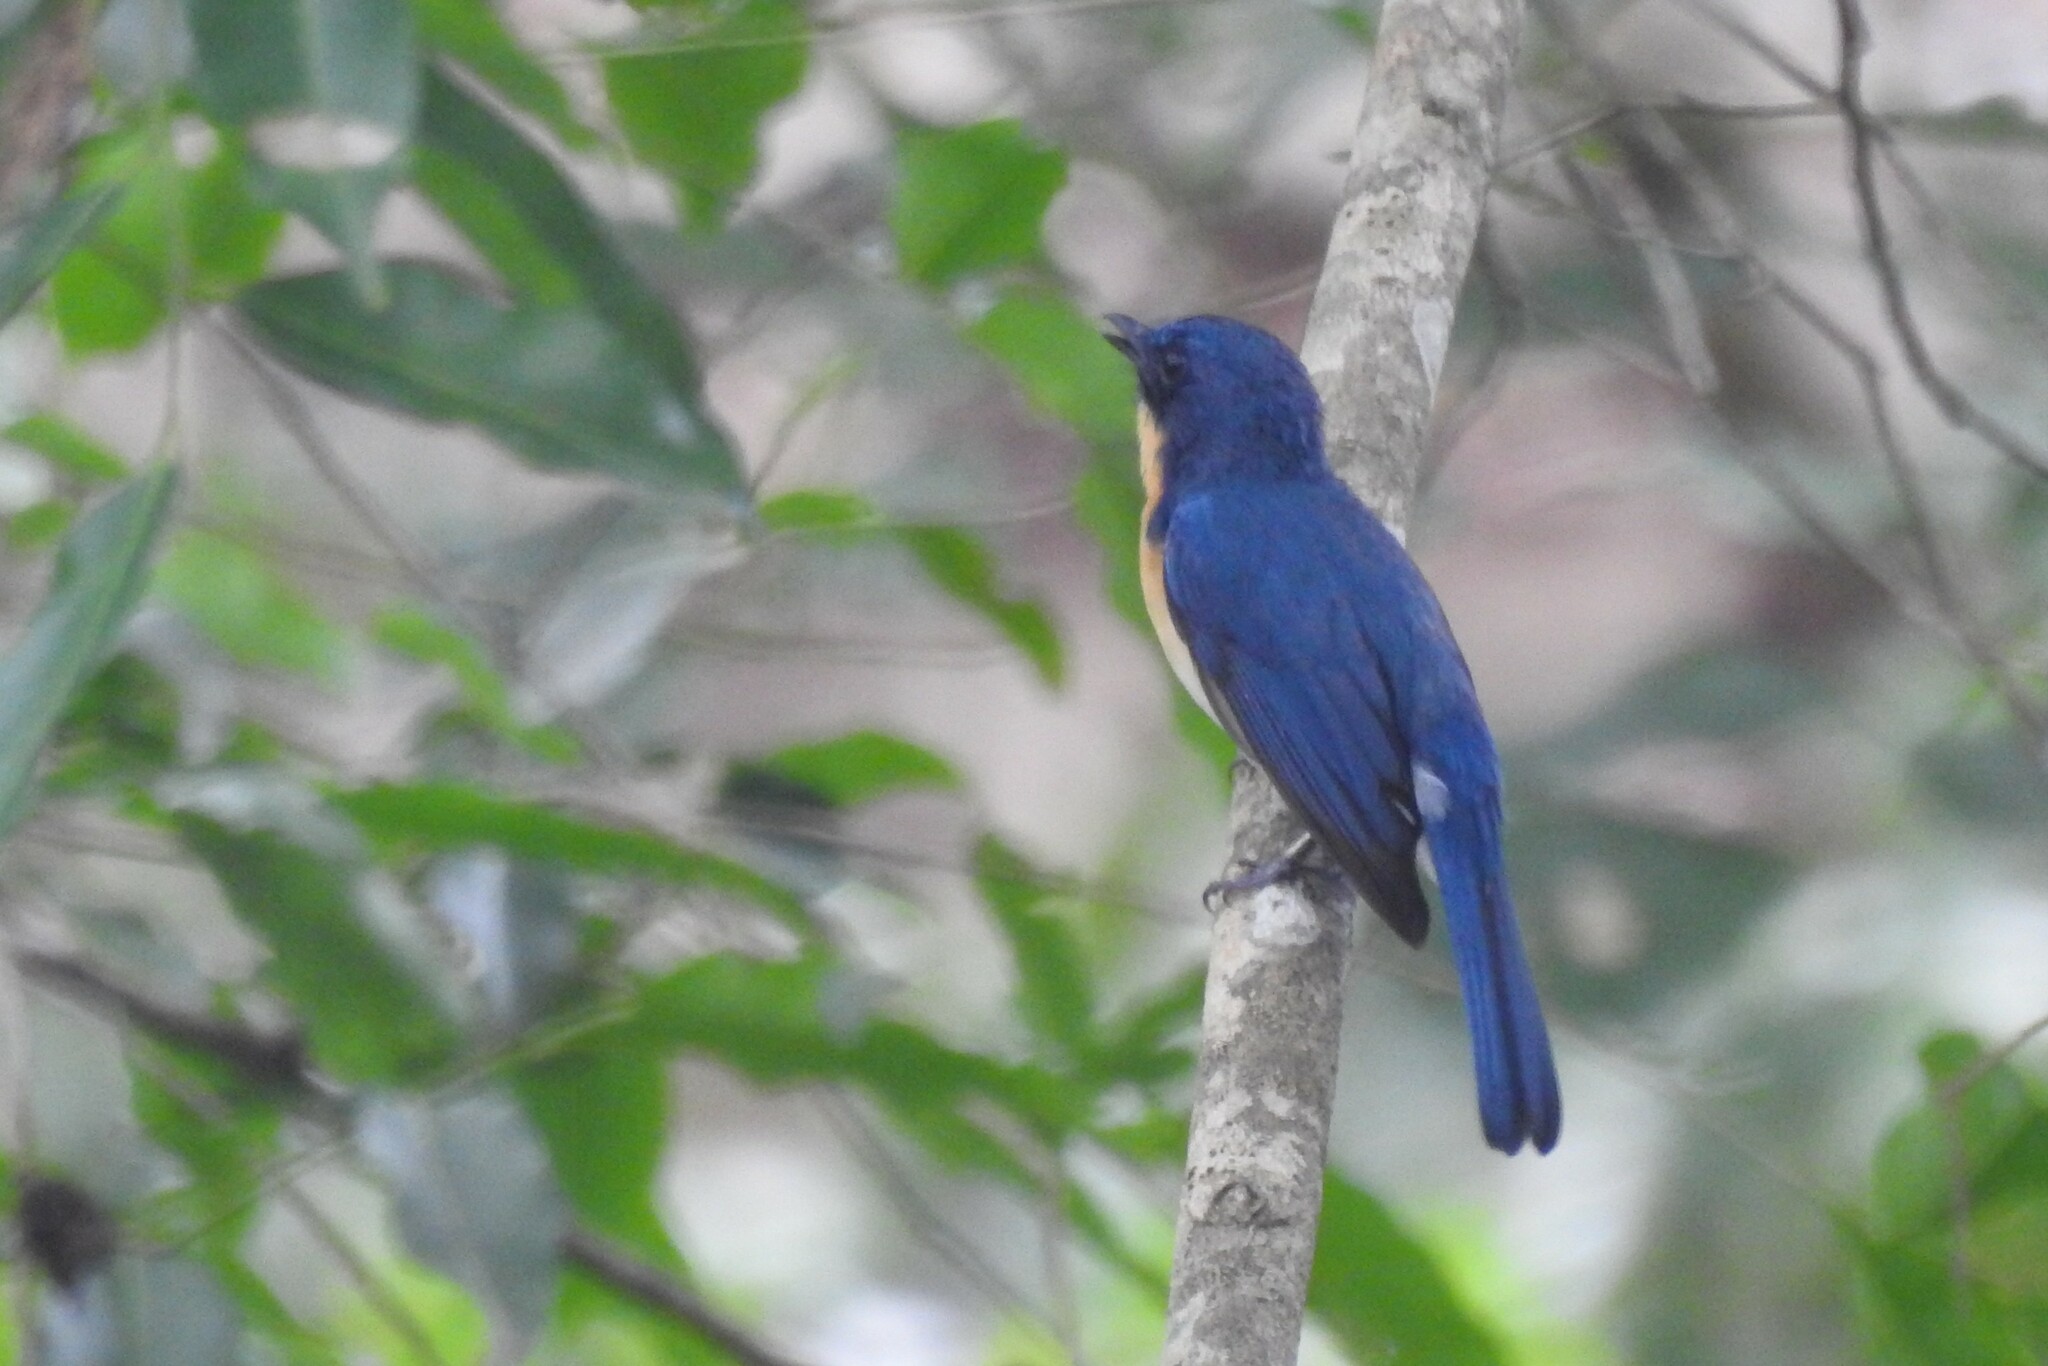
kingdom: Animalia
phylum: Chordata
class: Aves
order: Passeriformes
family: Muscicapidae
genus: Cyornis
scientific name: Cyornis tickelliae
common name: Tickell's blue flycatcher
